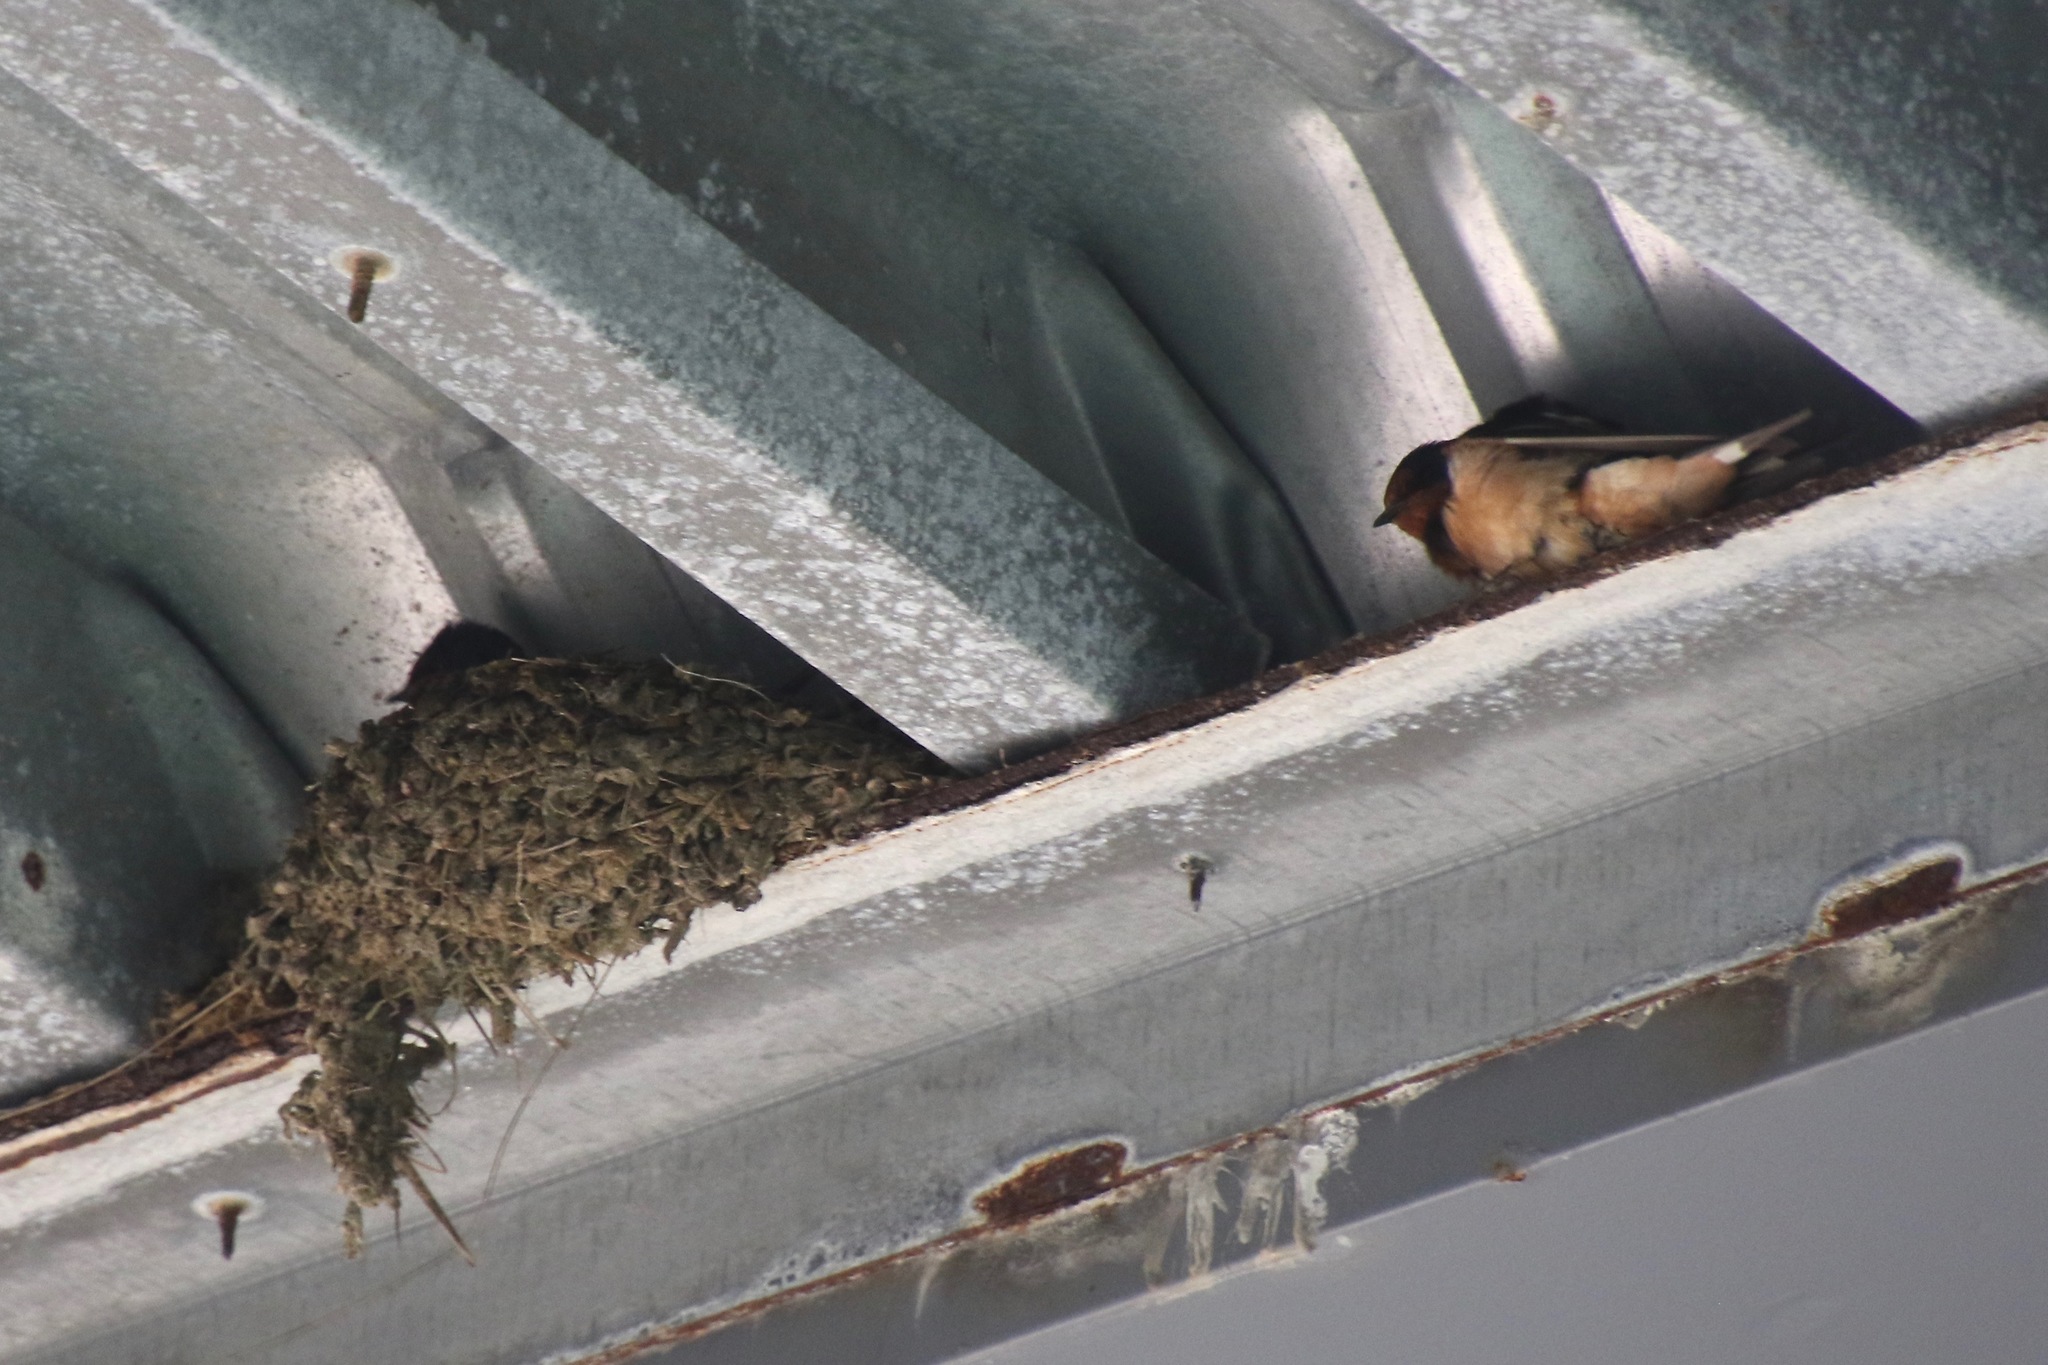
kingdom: Animalia
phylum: Chordata
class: Aves
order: Passeriformes
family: Hirundinidae
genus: Hirundo
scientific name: Hirundo rustica
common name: Barn swallow
